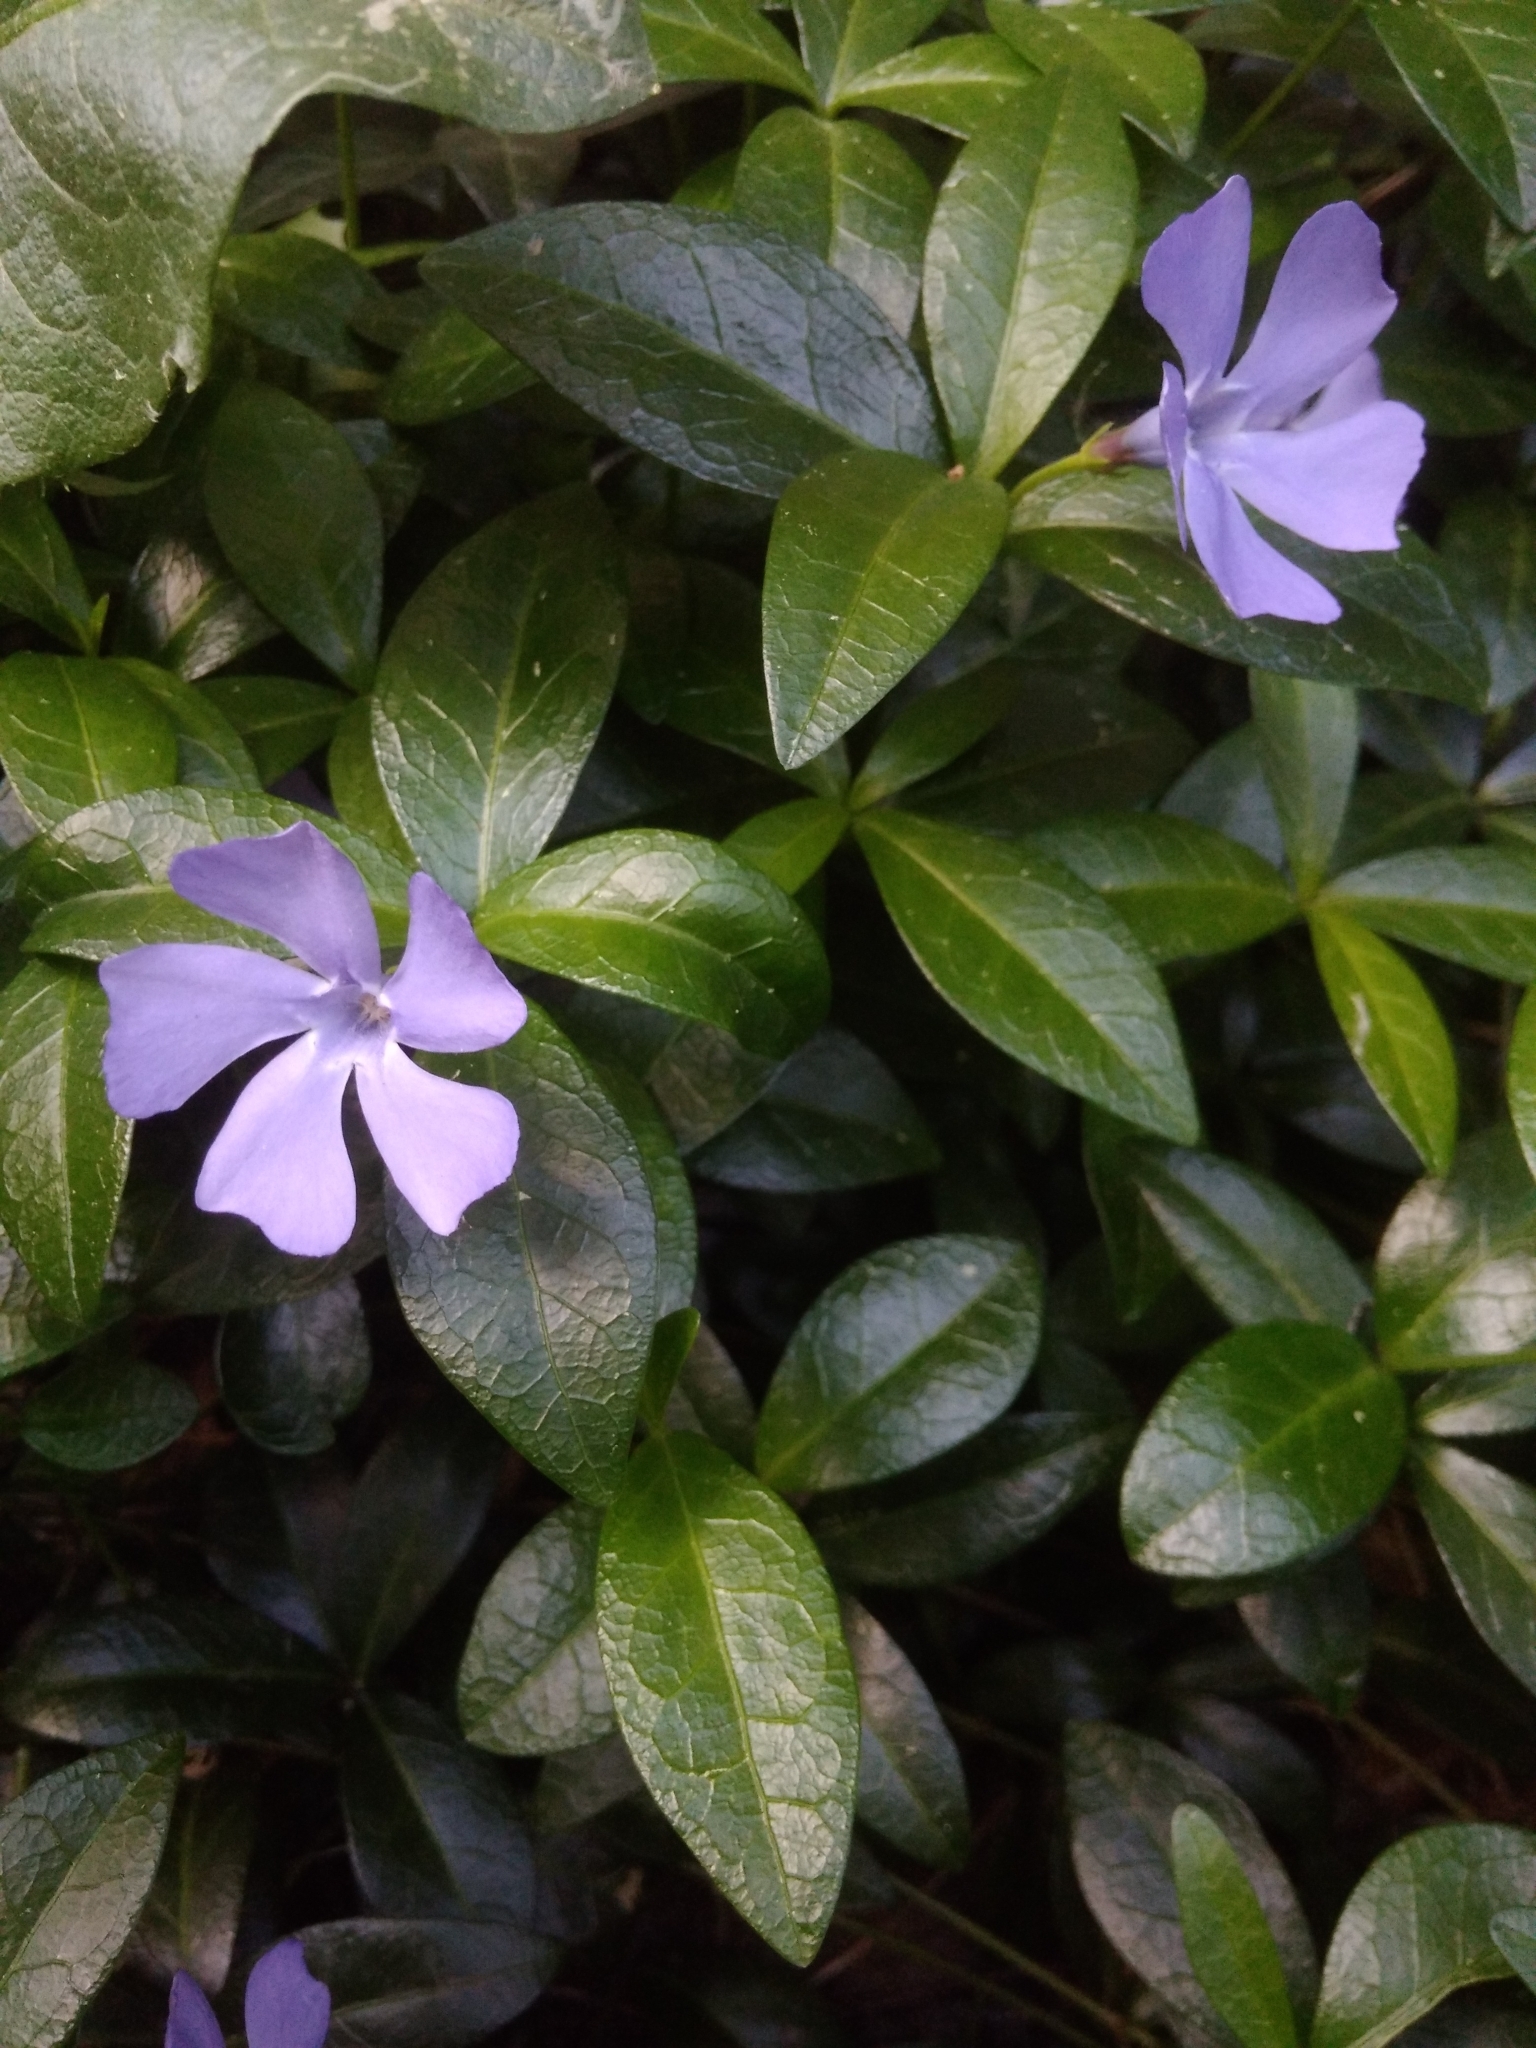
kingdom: Plantae
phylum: Tracheophyta
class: Magnoliopsida
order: Gentianales
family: Apocynaceae
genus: Vinca
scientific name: Vinca minor
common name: Lesser periwinkle
